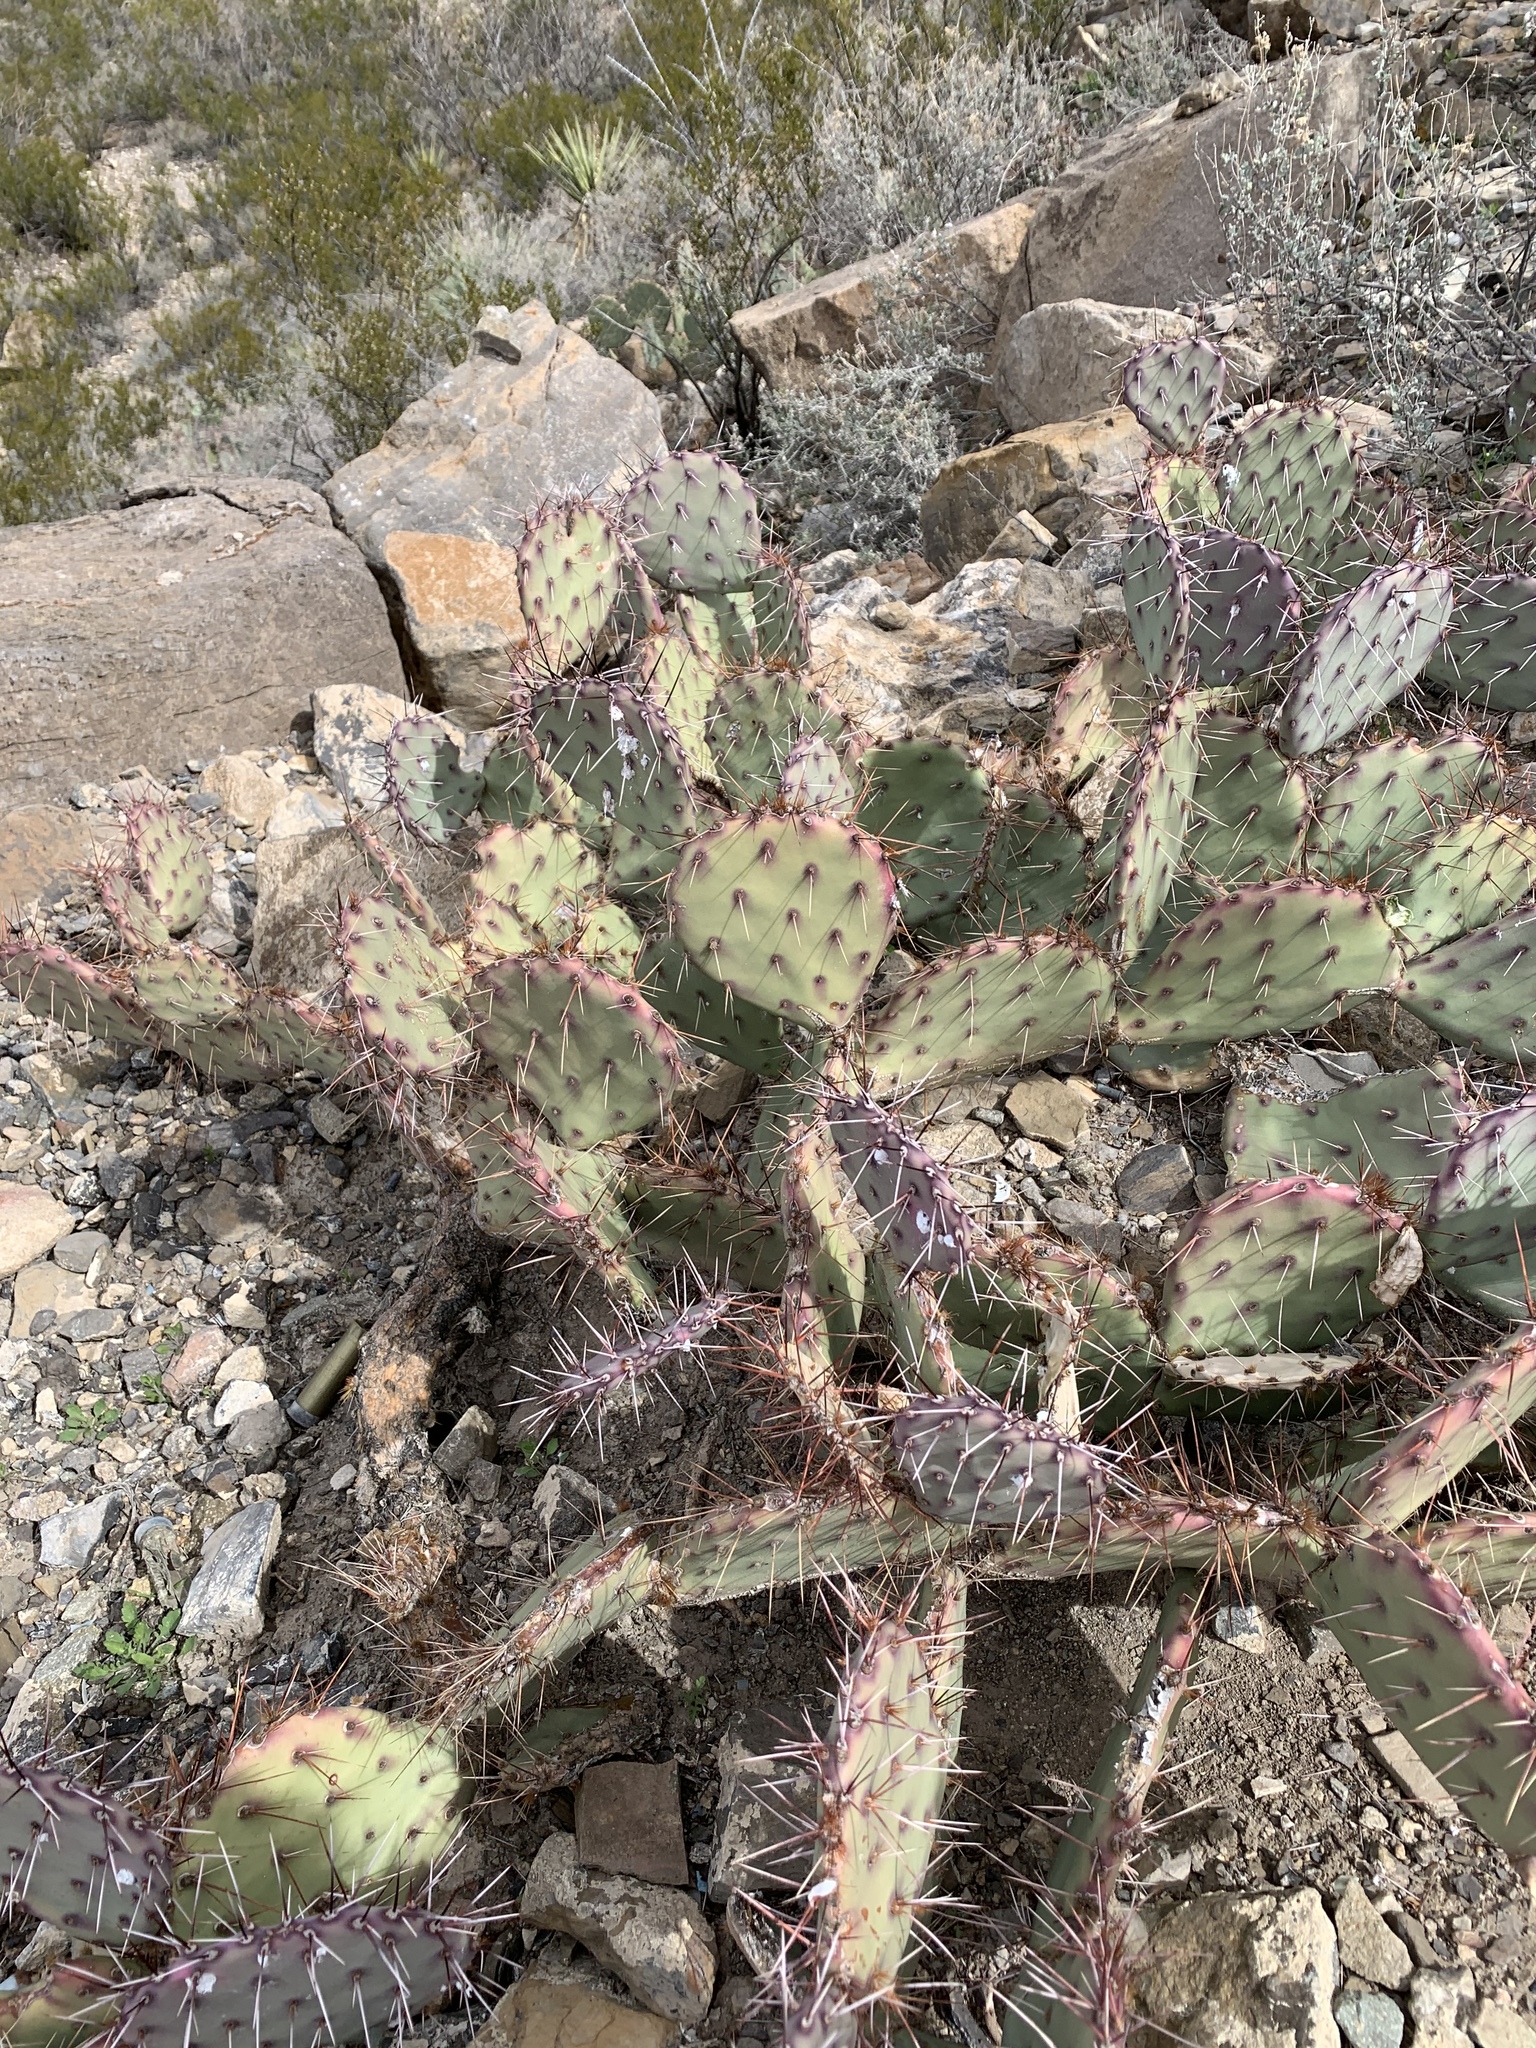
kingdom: Plantae
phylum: Tracheophyta
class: Magnoliopsida
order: Caryophyllales
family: Cactaceae
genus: Opuntia
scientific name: Opuntia macrocentra
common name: Purple prickly-pear
